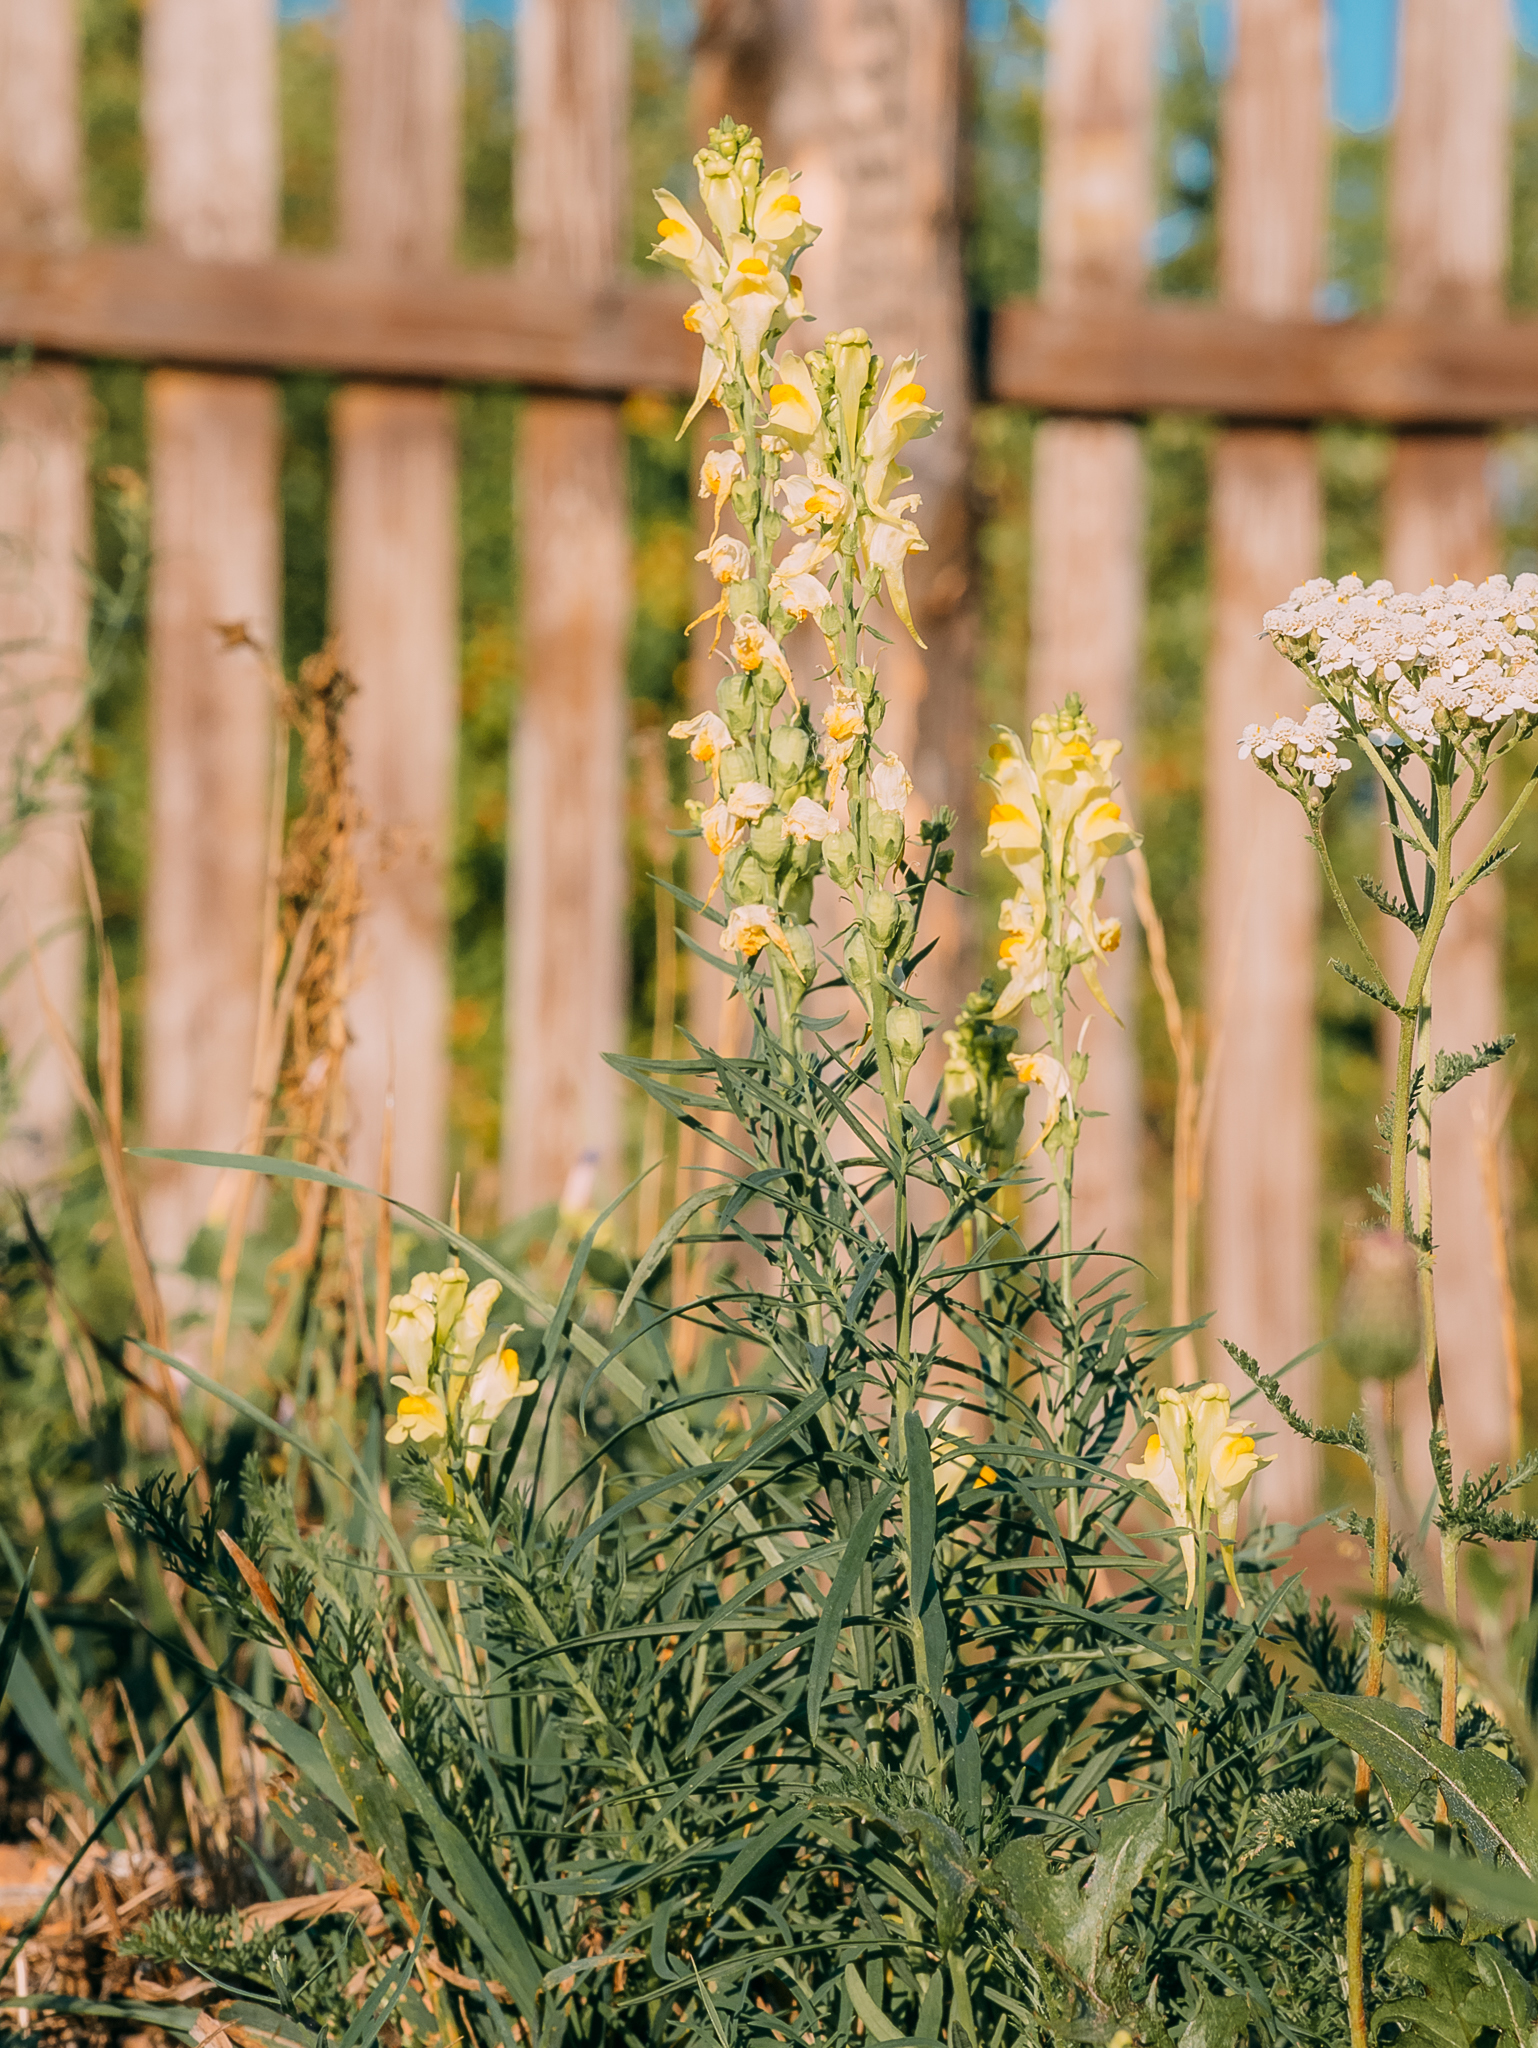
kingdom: Plantae
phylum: Tracheophyta
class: Magnoliopsida
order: Lamiales
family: Plantaginaceae
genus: Linaria
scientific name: Linaria vulgaris
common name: Butter and eggs
